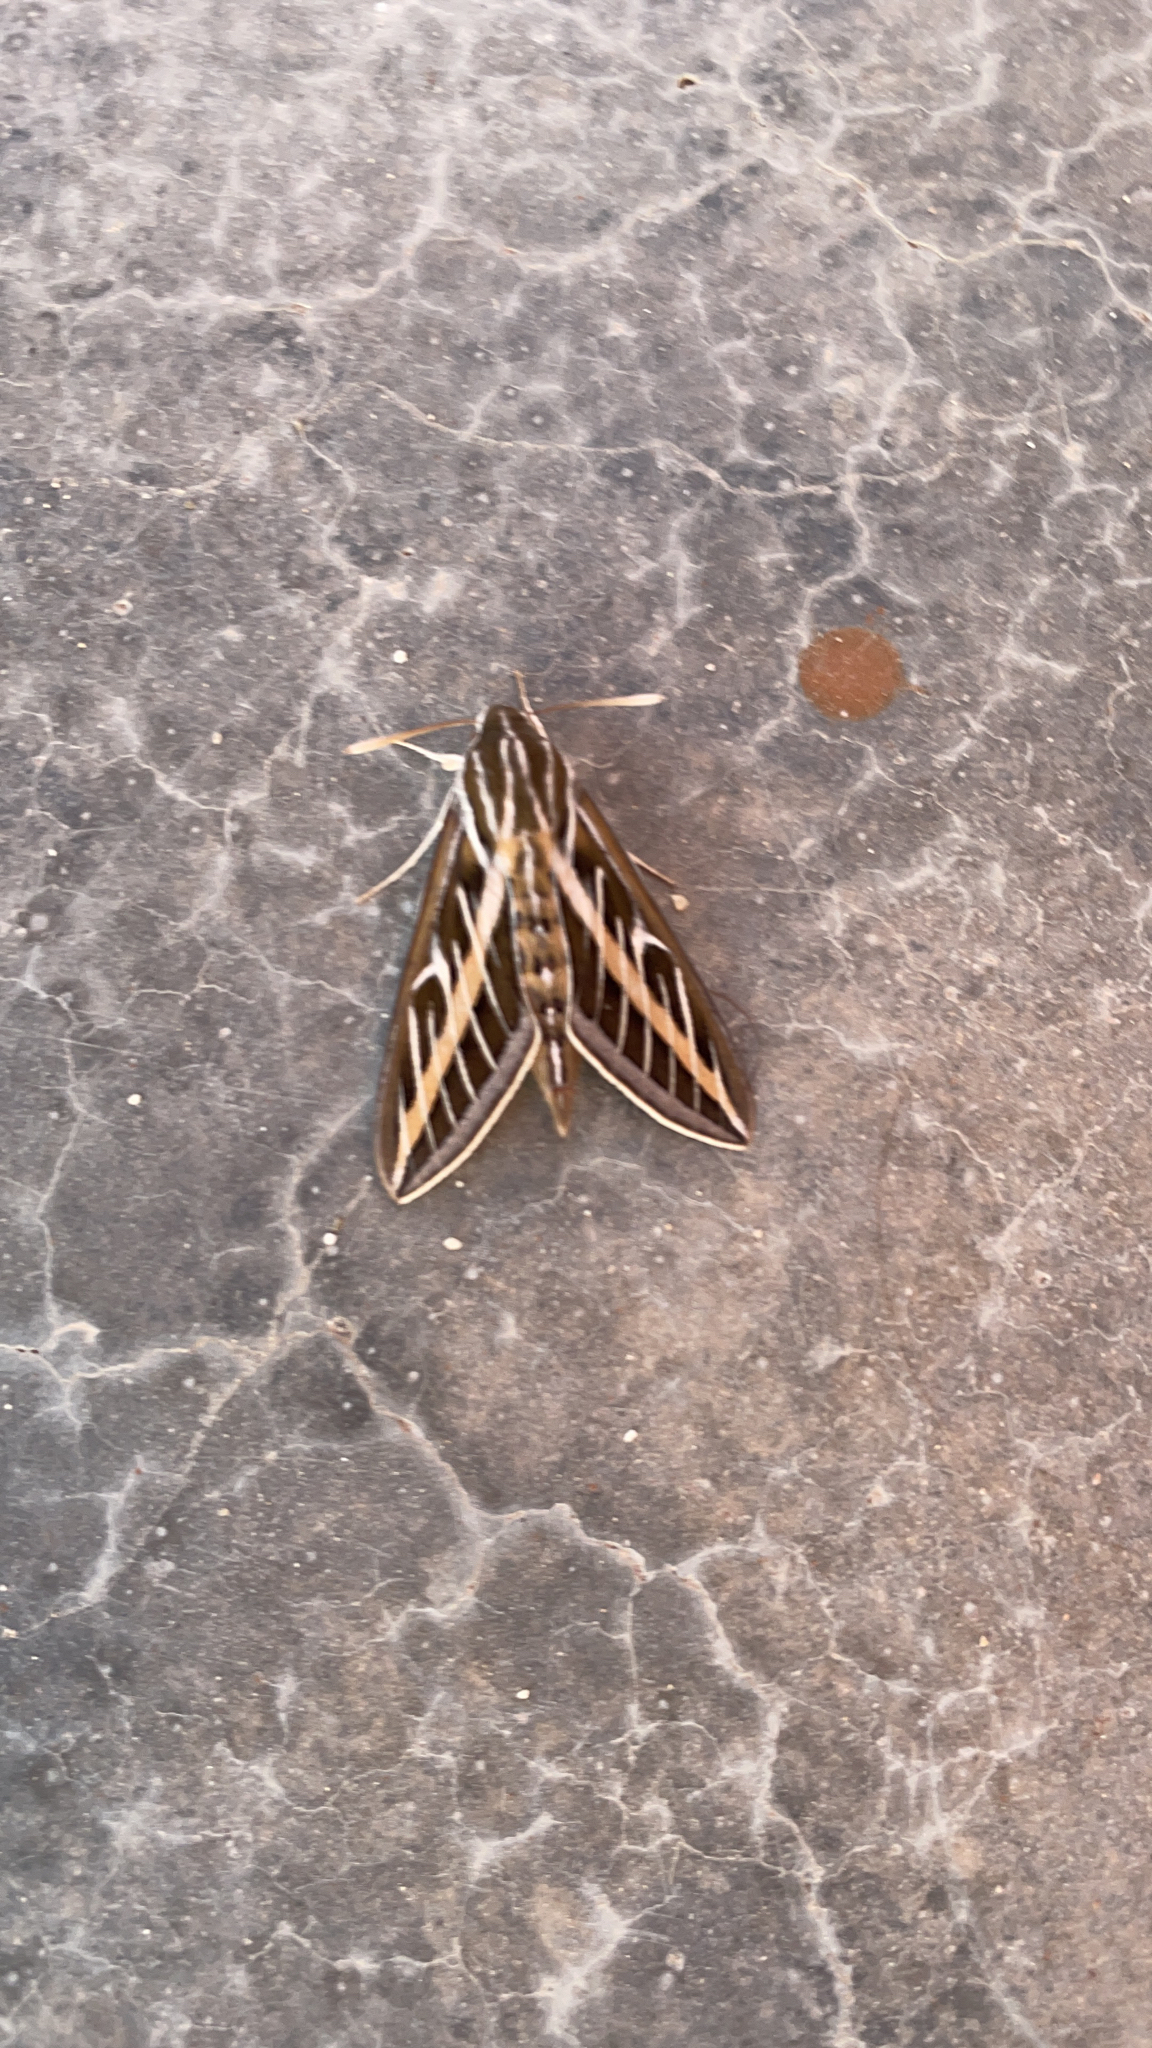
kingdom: Animalia
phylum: Arthropoda
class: Insecta
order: Lepidoptera
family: Sphingidae
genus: Hyles
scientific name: Hyles lineata
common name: White-lined sphinx
